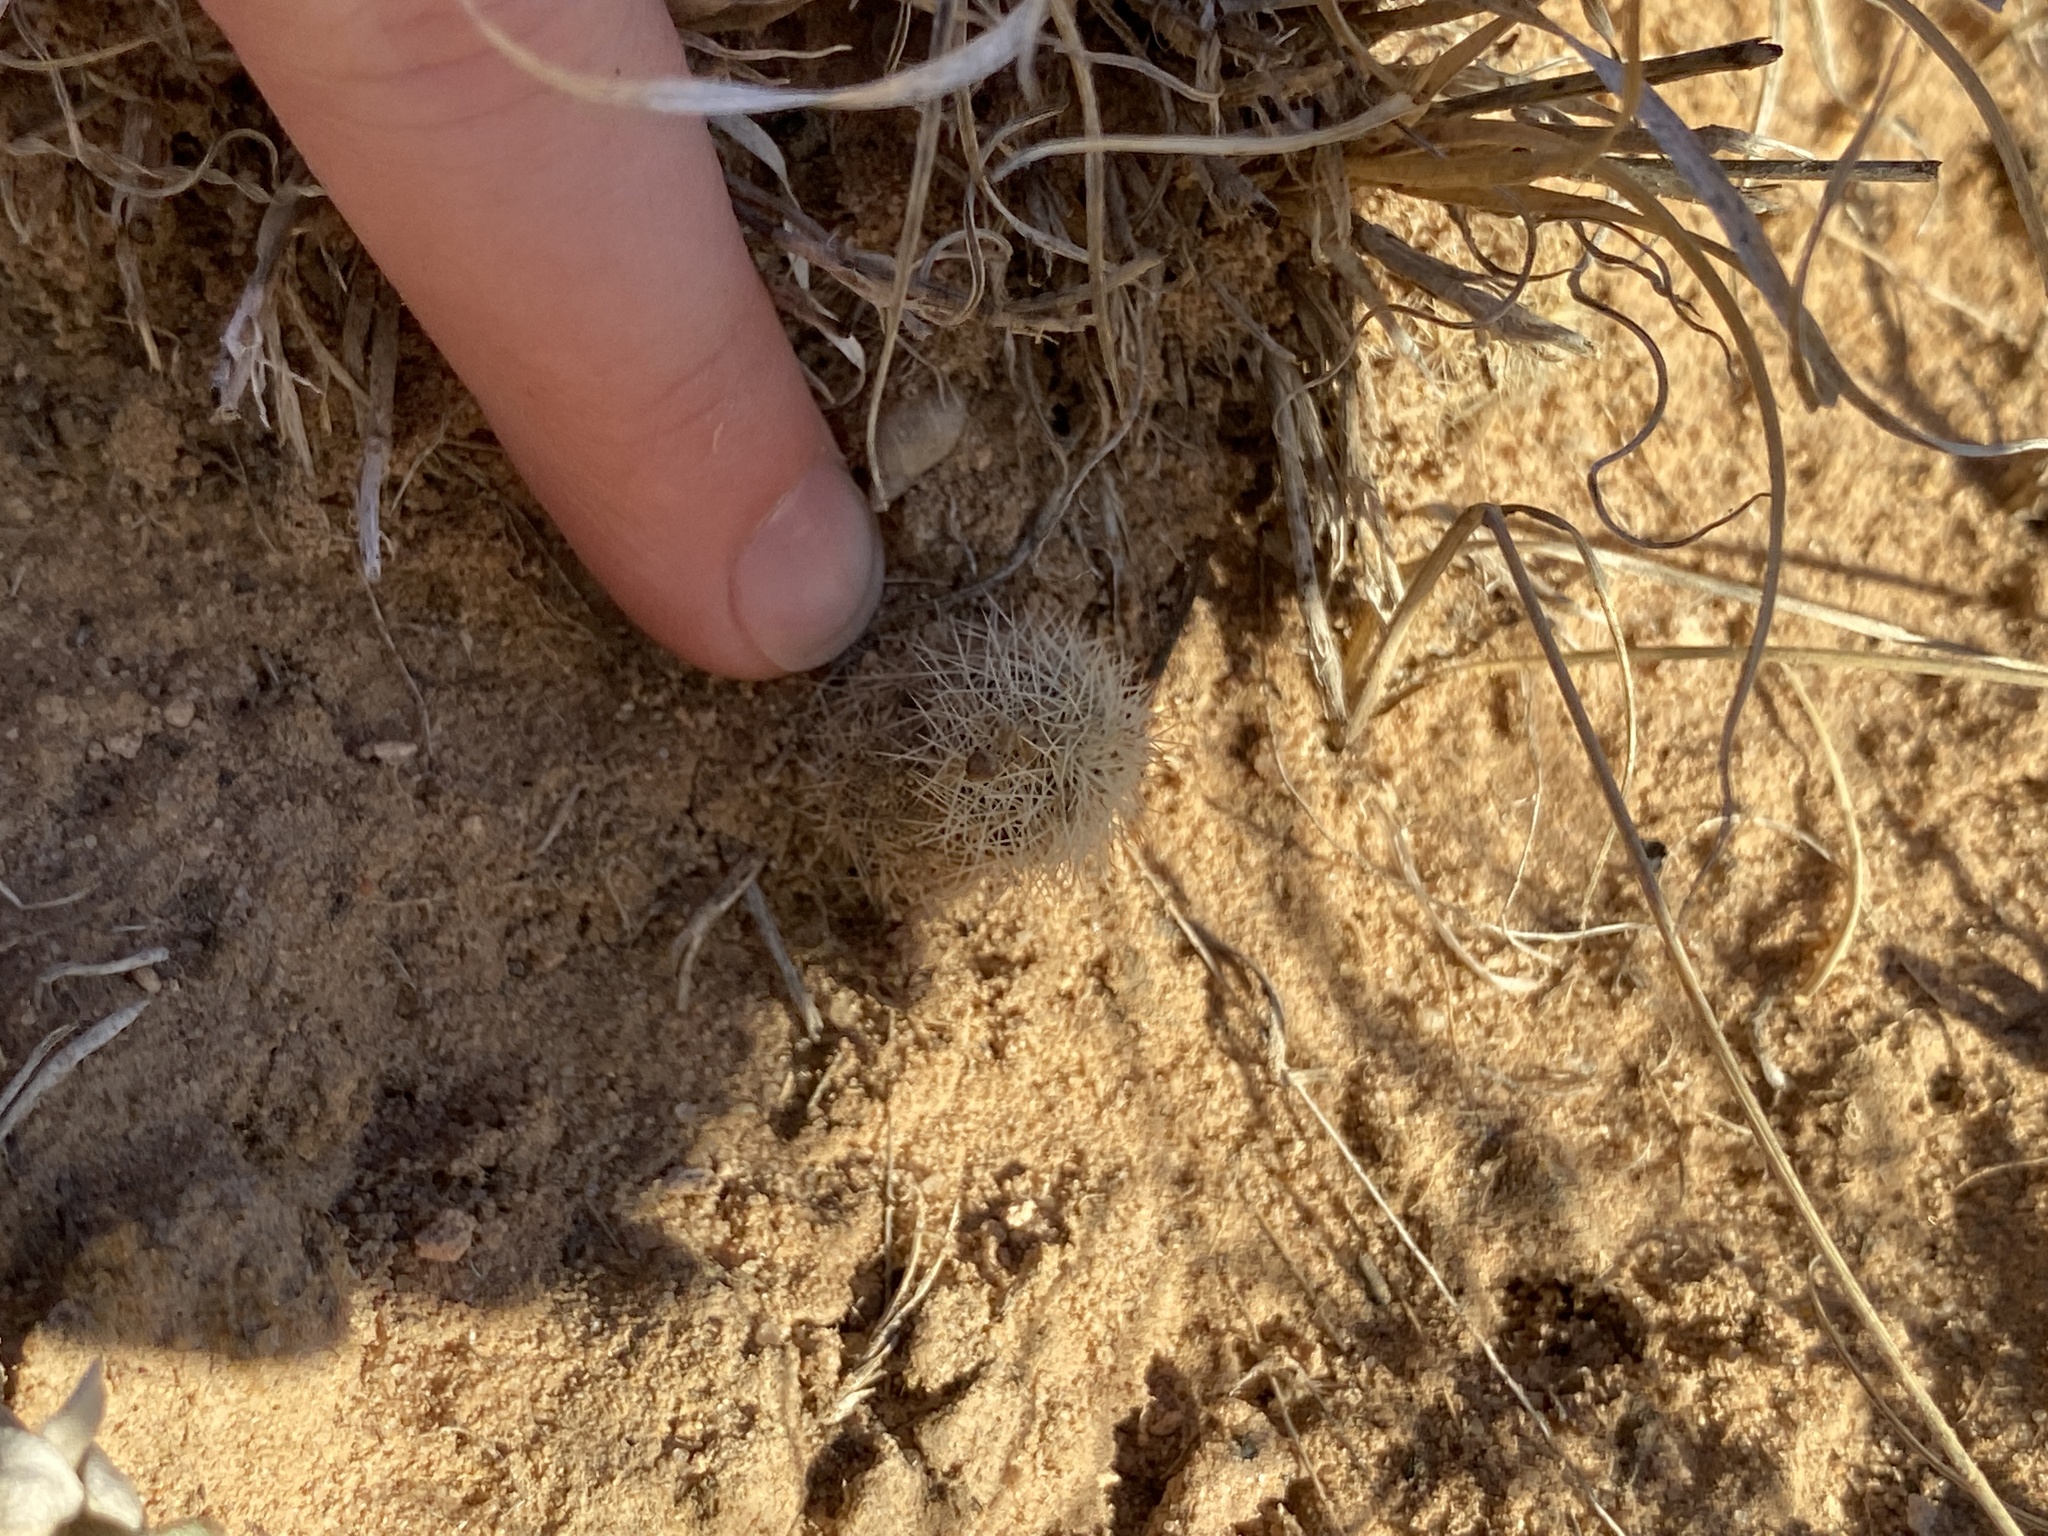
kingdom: Plantae
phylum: Tracheophyta
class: Magnoliopsida
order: Caryophyllales
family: Cactaceae
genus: Echinocereus
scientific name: Echinocereus reichenbachii
